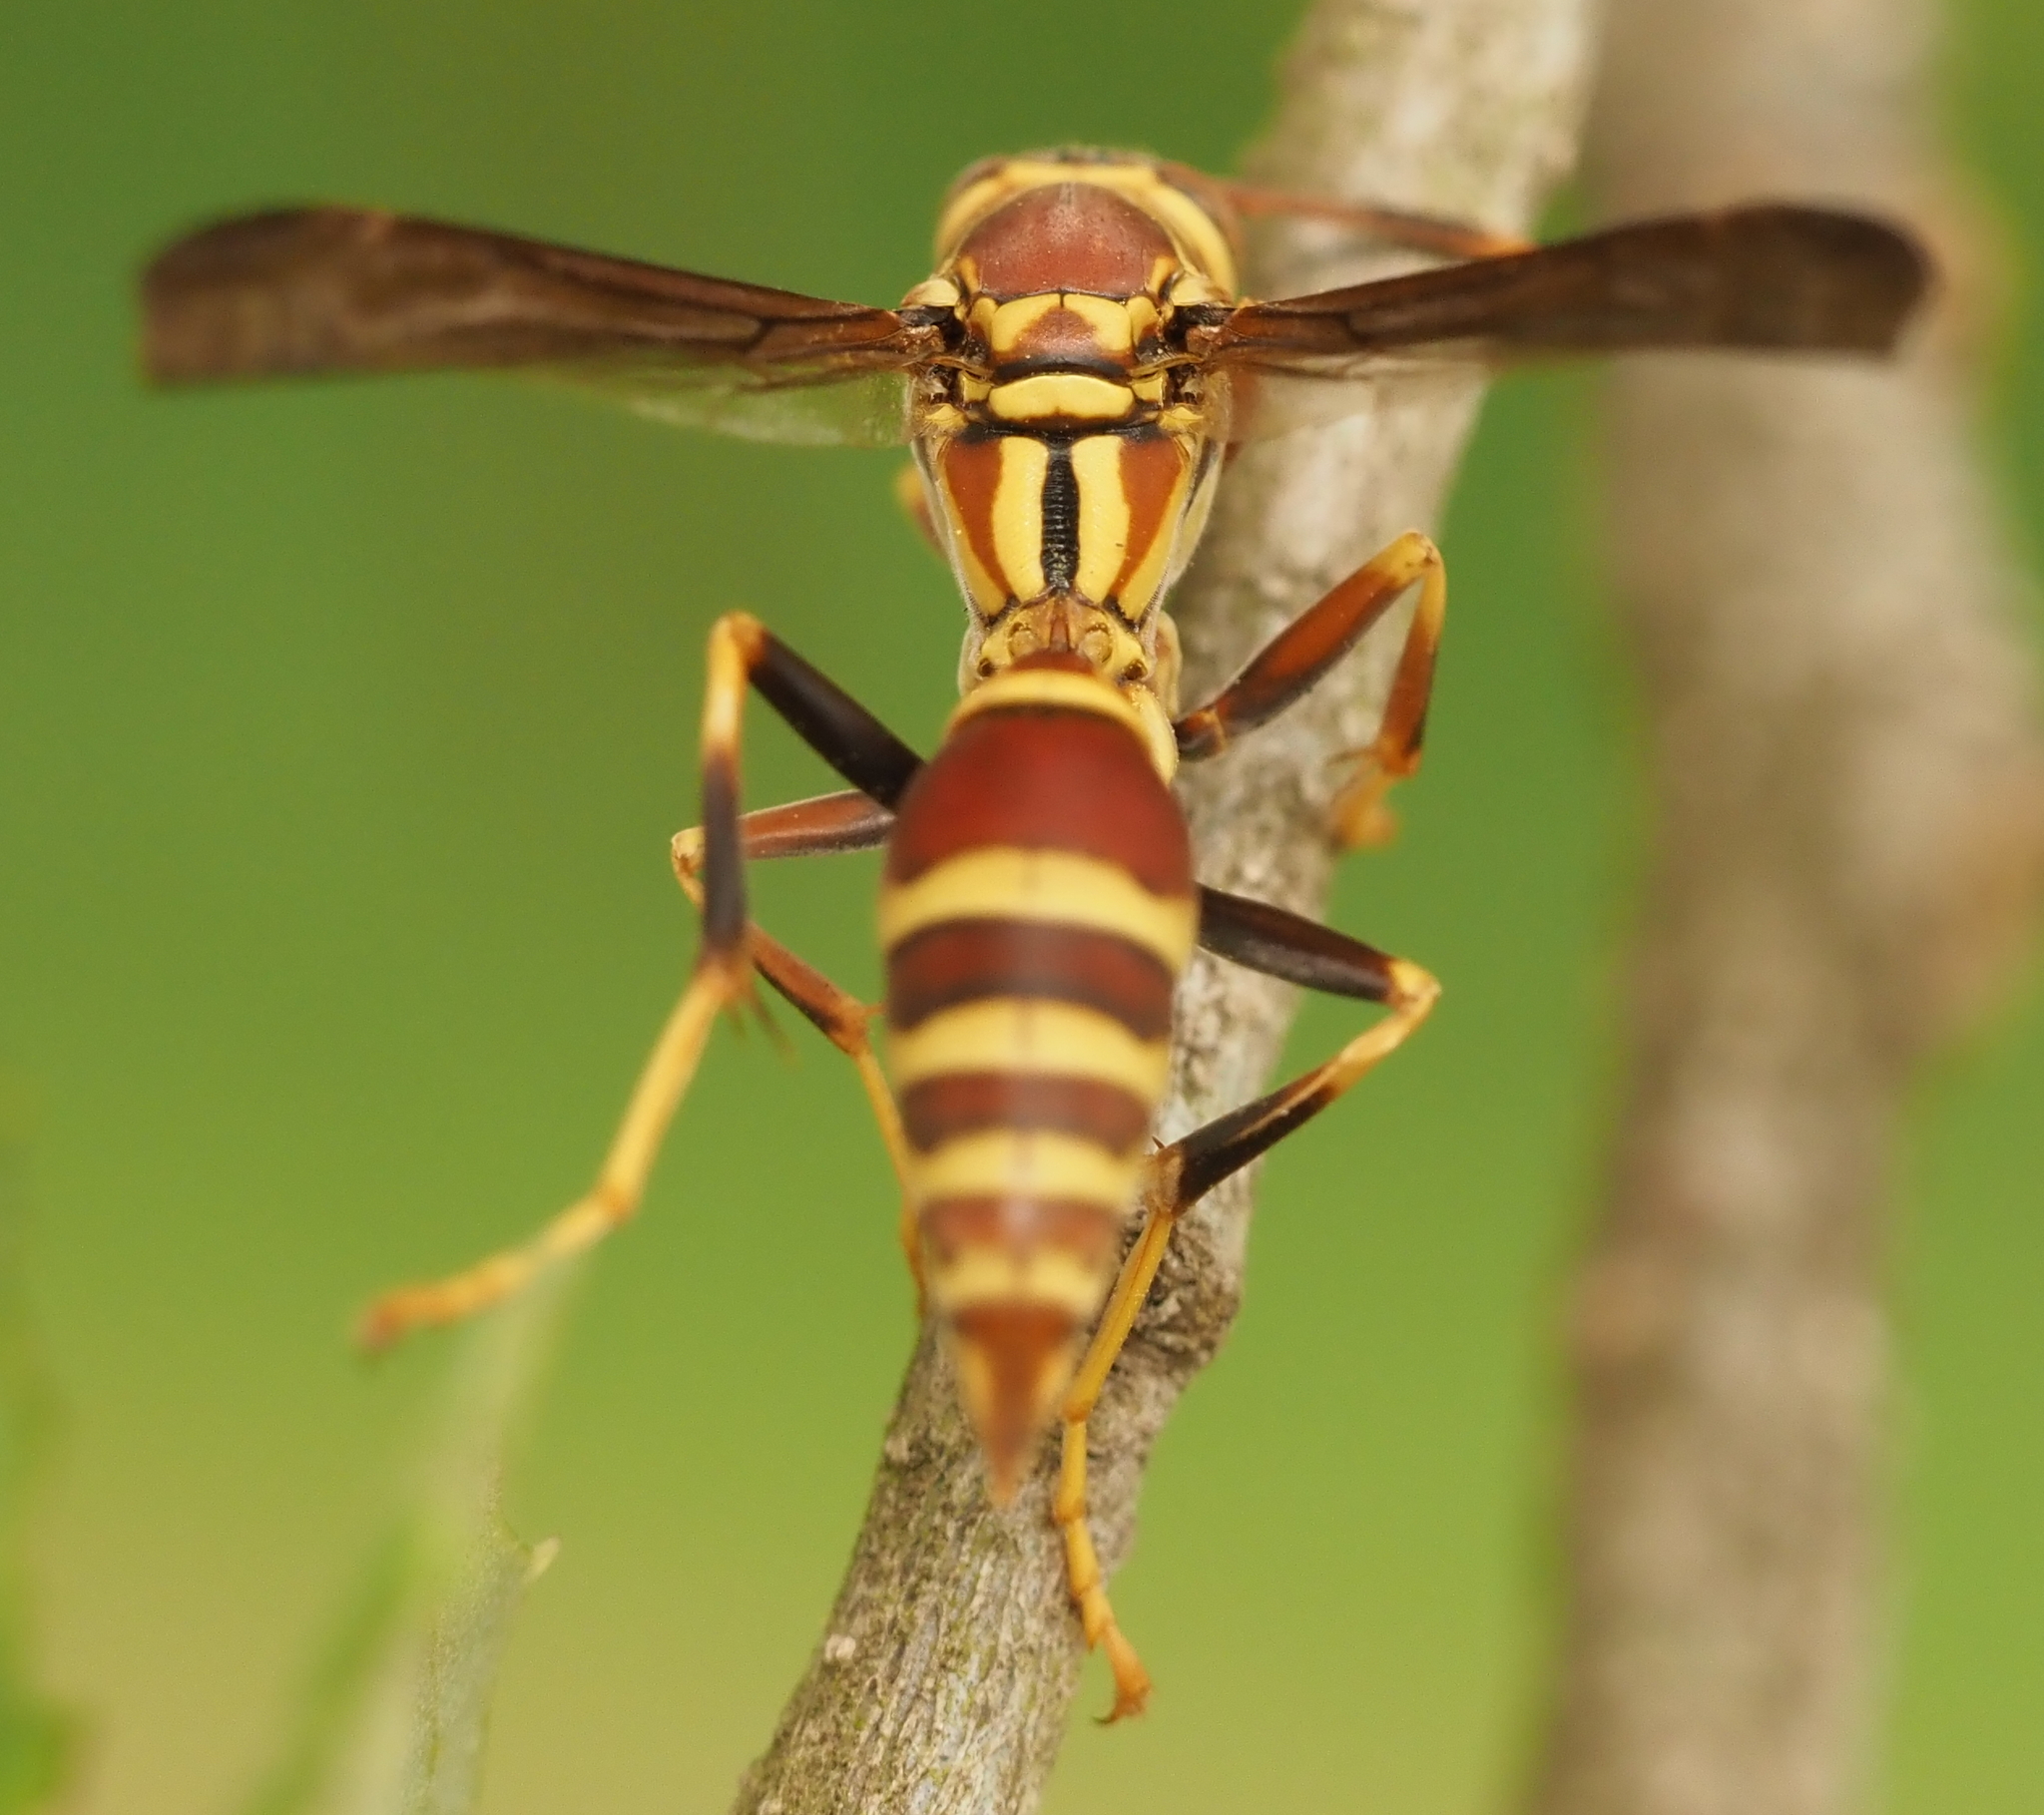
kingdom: Animalia
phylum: Arthropoda
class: Insecta
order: Hymenoptera
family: Eumenidae
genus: Polistes
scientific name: Polistes exclamans
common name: Paper wasp
